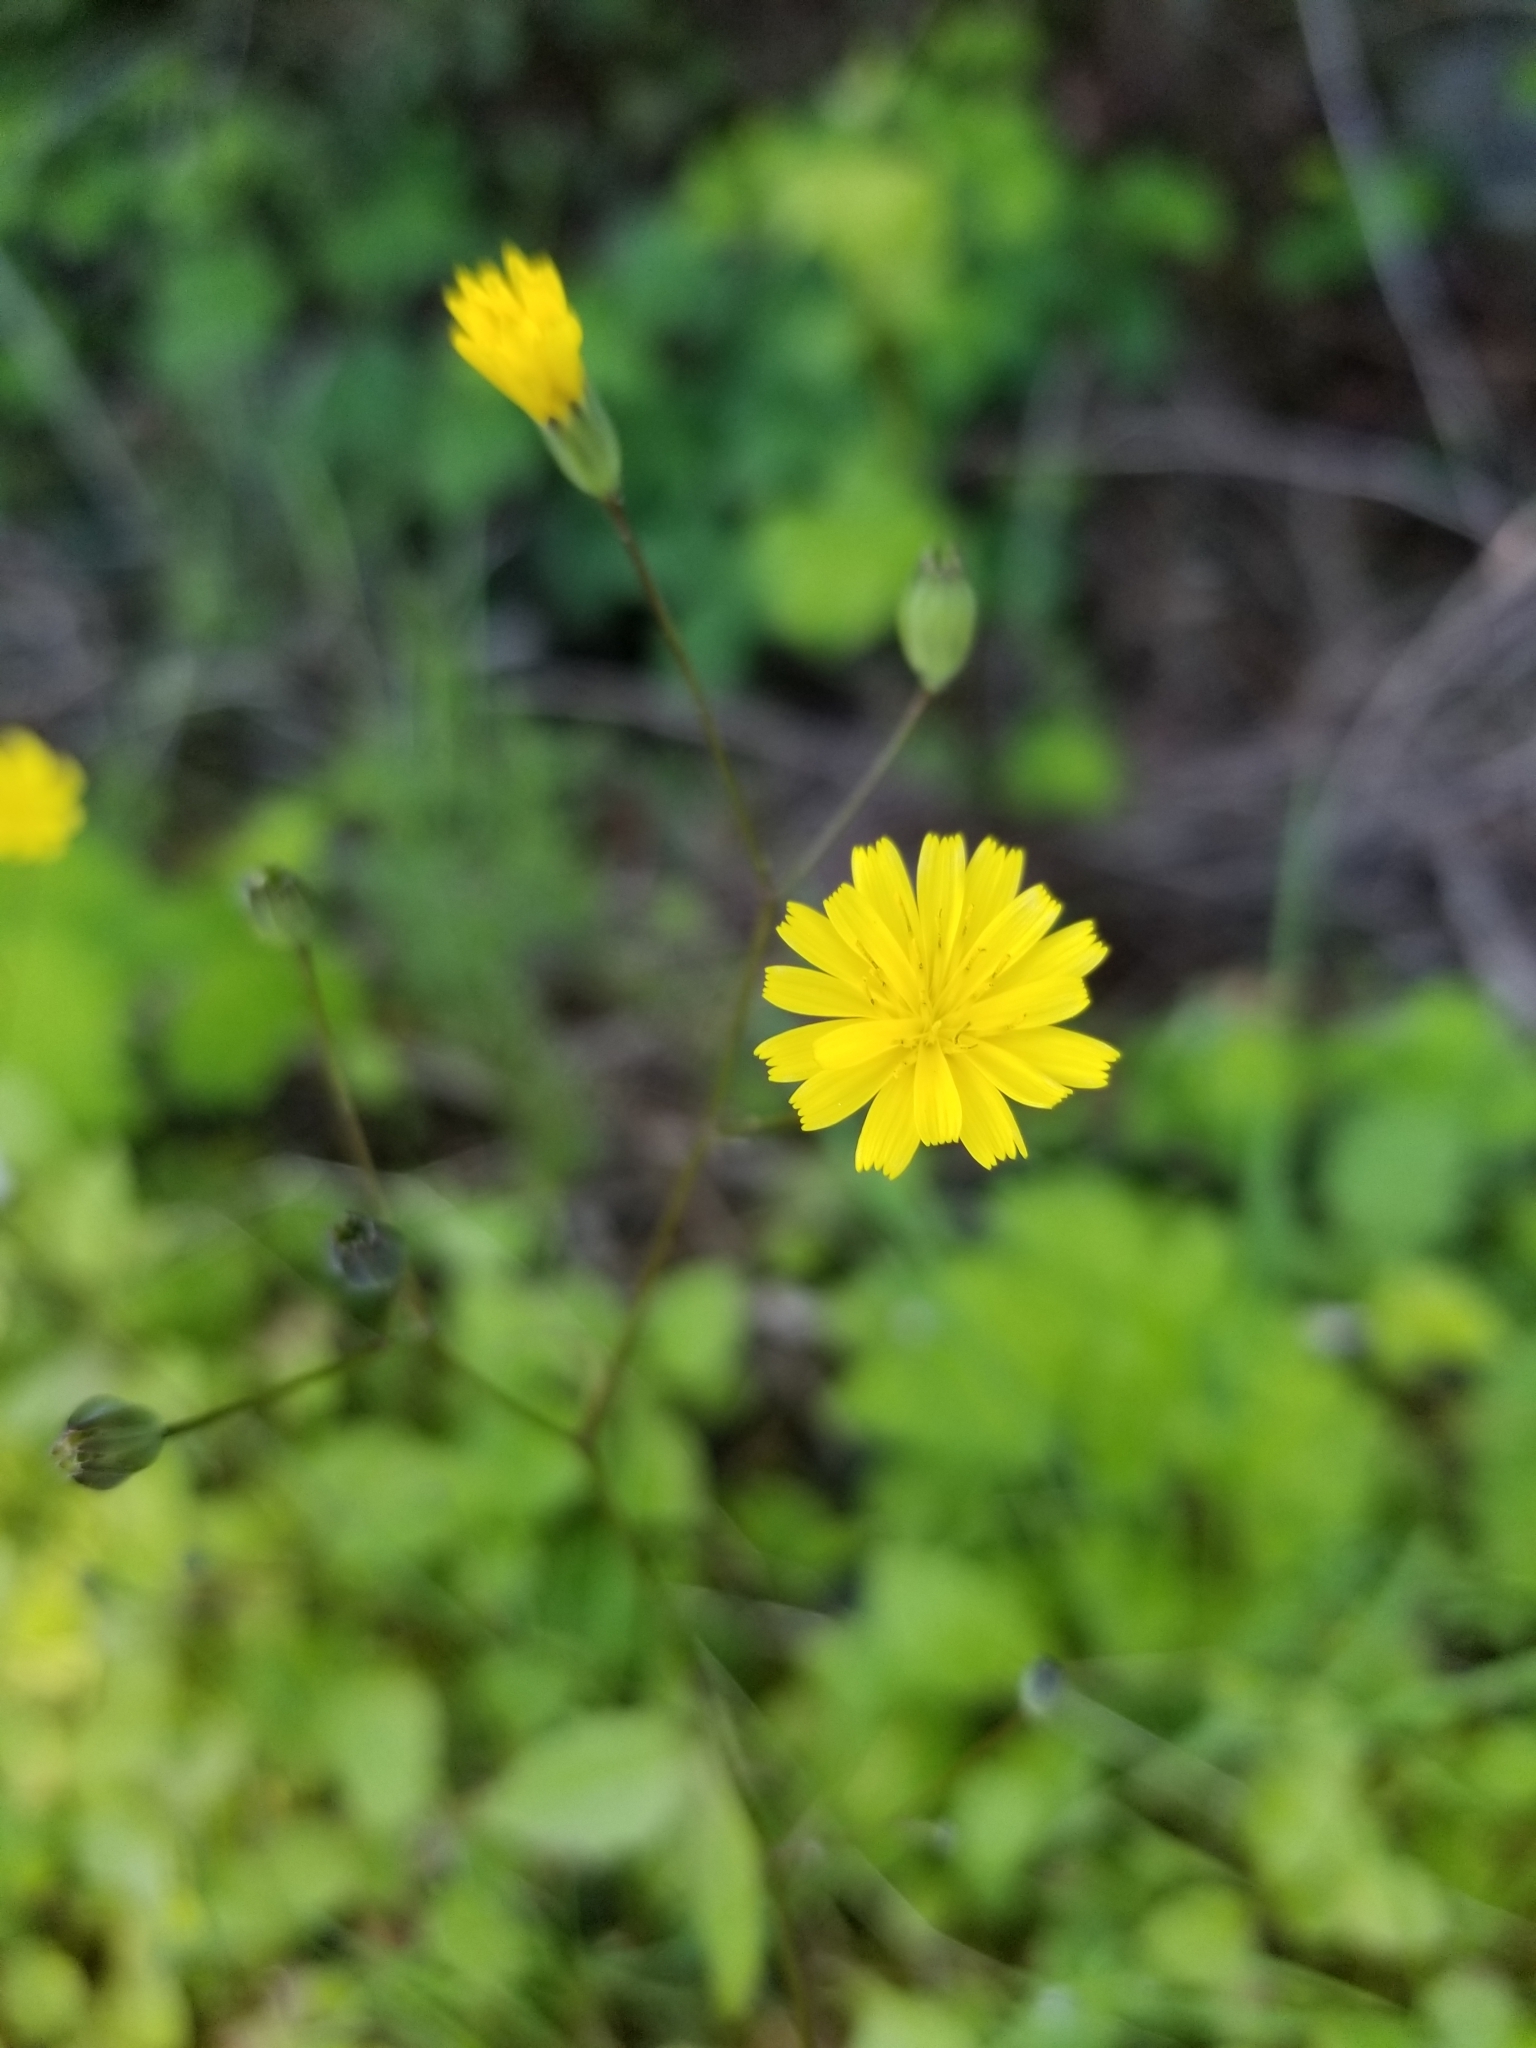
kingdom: Plantae
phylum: Tracheophyta
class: Magnoliopsida
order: Asterales
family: Asteraceae
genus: Lapsana
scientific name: Lapsana communis
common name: Nipplewort
